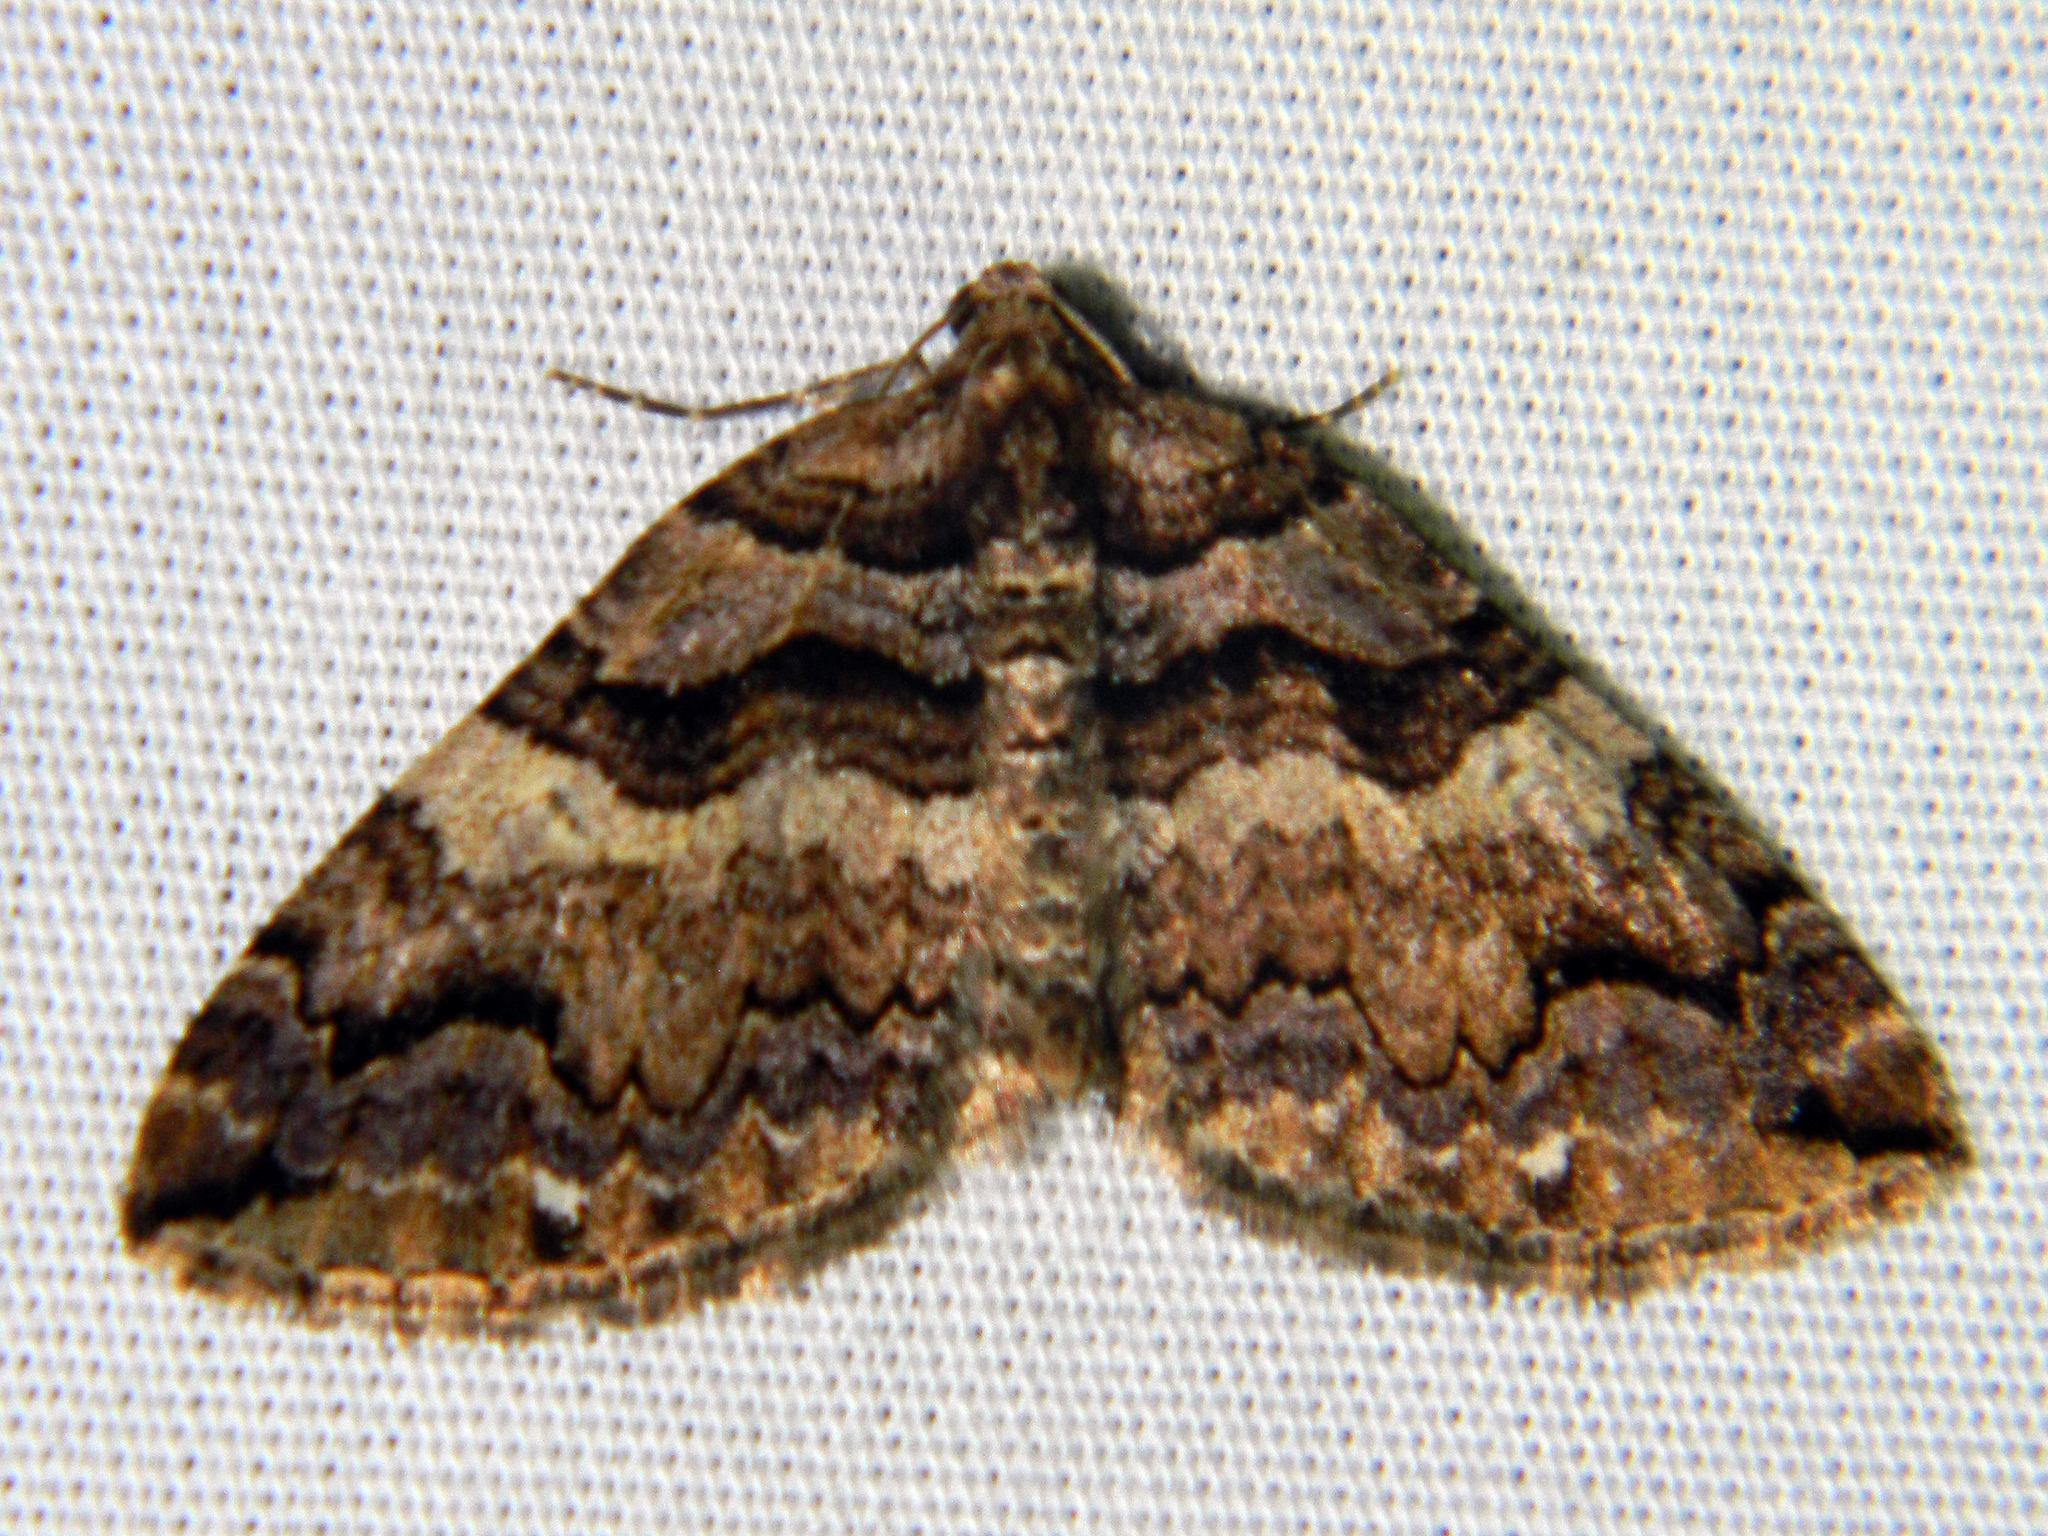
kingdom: Animalia
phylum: Arthropoda
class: Insecta
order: Lepidoptera
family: Geometridae
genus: Anticlea
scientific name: Anticlea vasiliata
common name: Variable carpet
